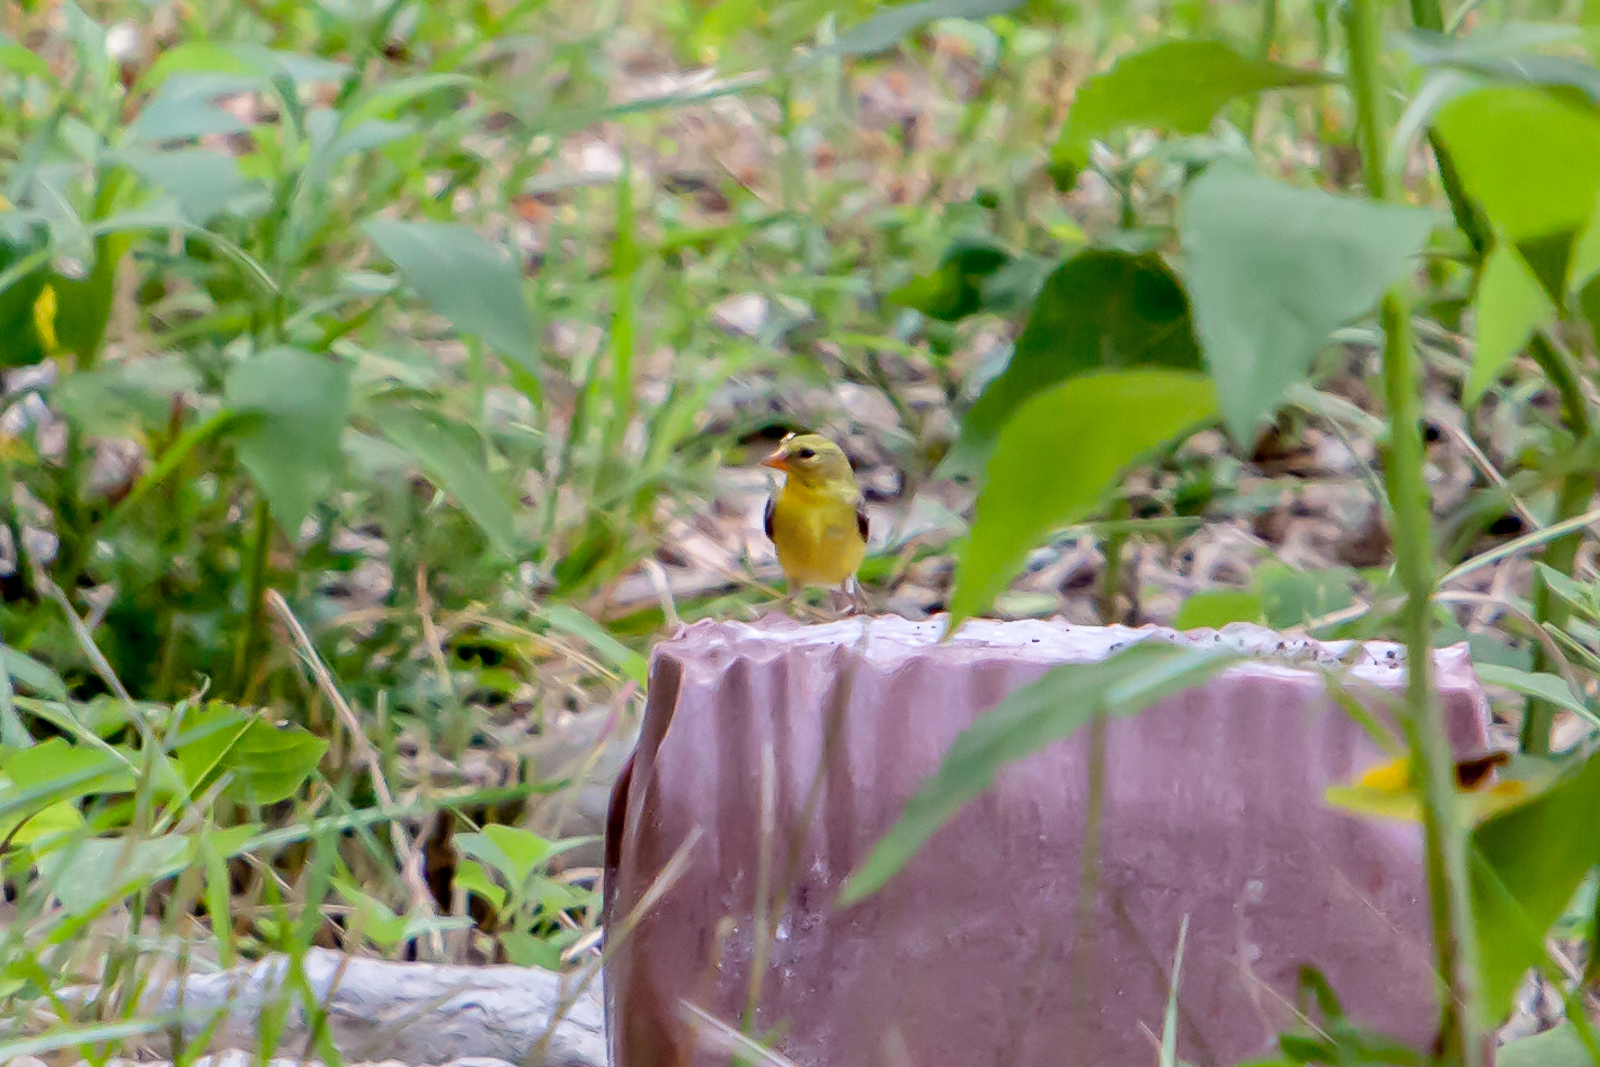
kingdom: Animalia
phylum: Chordata
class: Aves
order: Passeriformes
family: Fringillidae
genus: Spinus
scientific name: Spinus tristis
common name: American goldfinch
